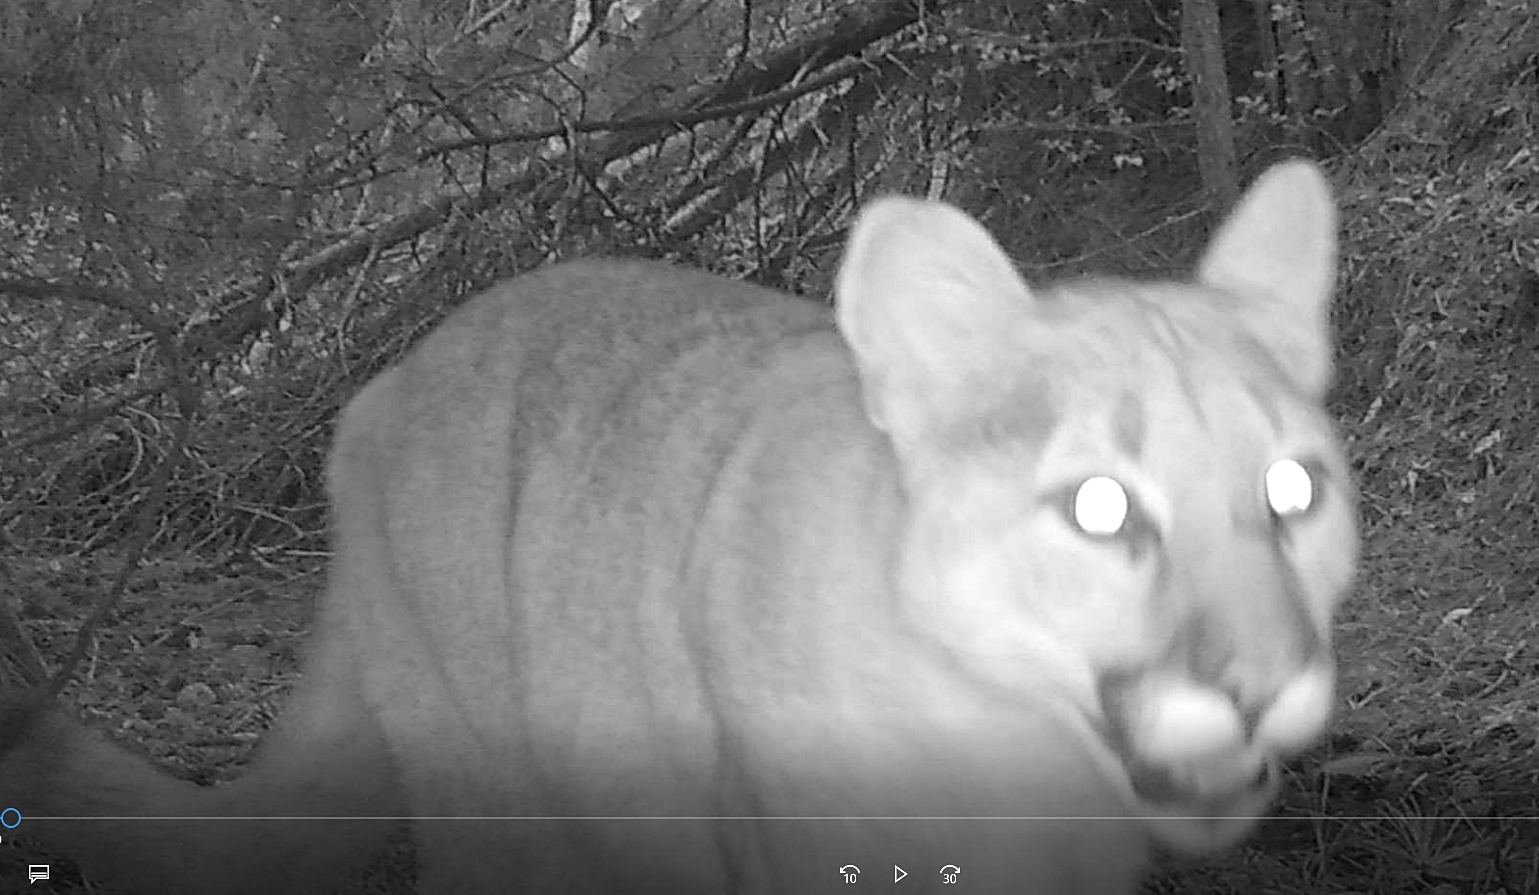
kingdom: Animalia
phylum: Chordata
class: Mammalia
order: Carnivora
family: Felidae
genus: Puma
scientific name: Puma concolor
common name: Puma
